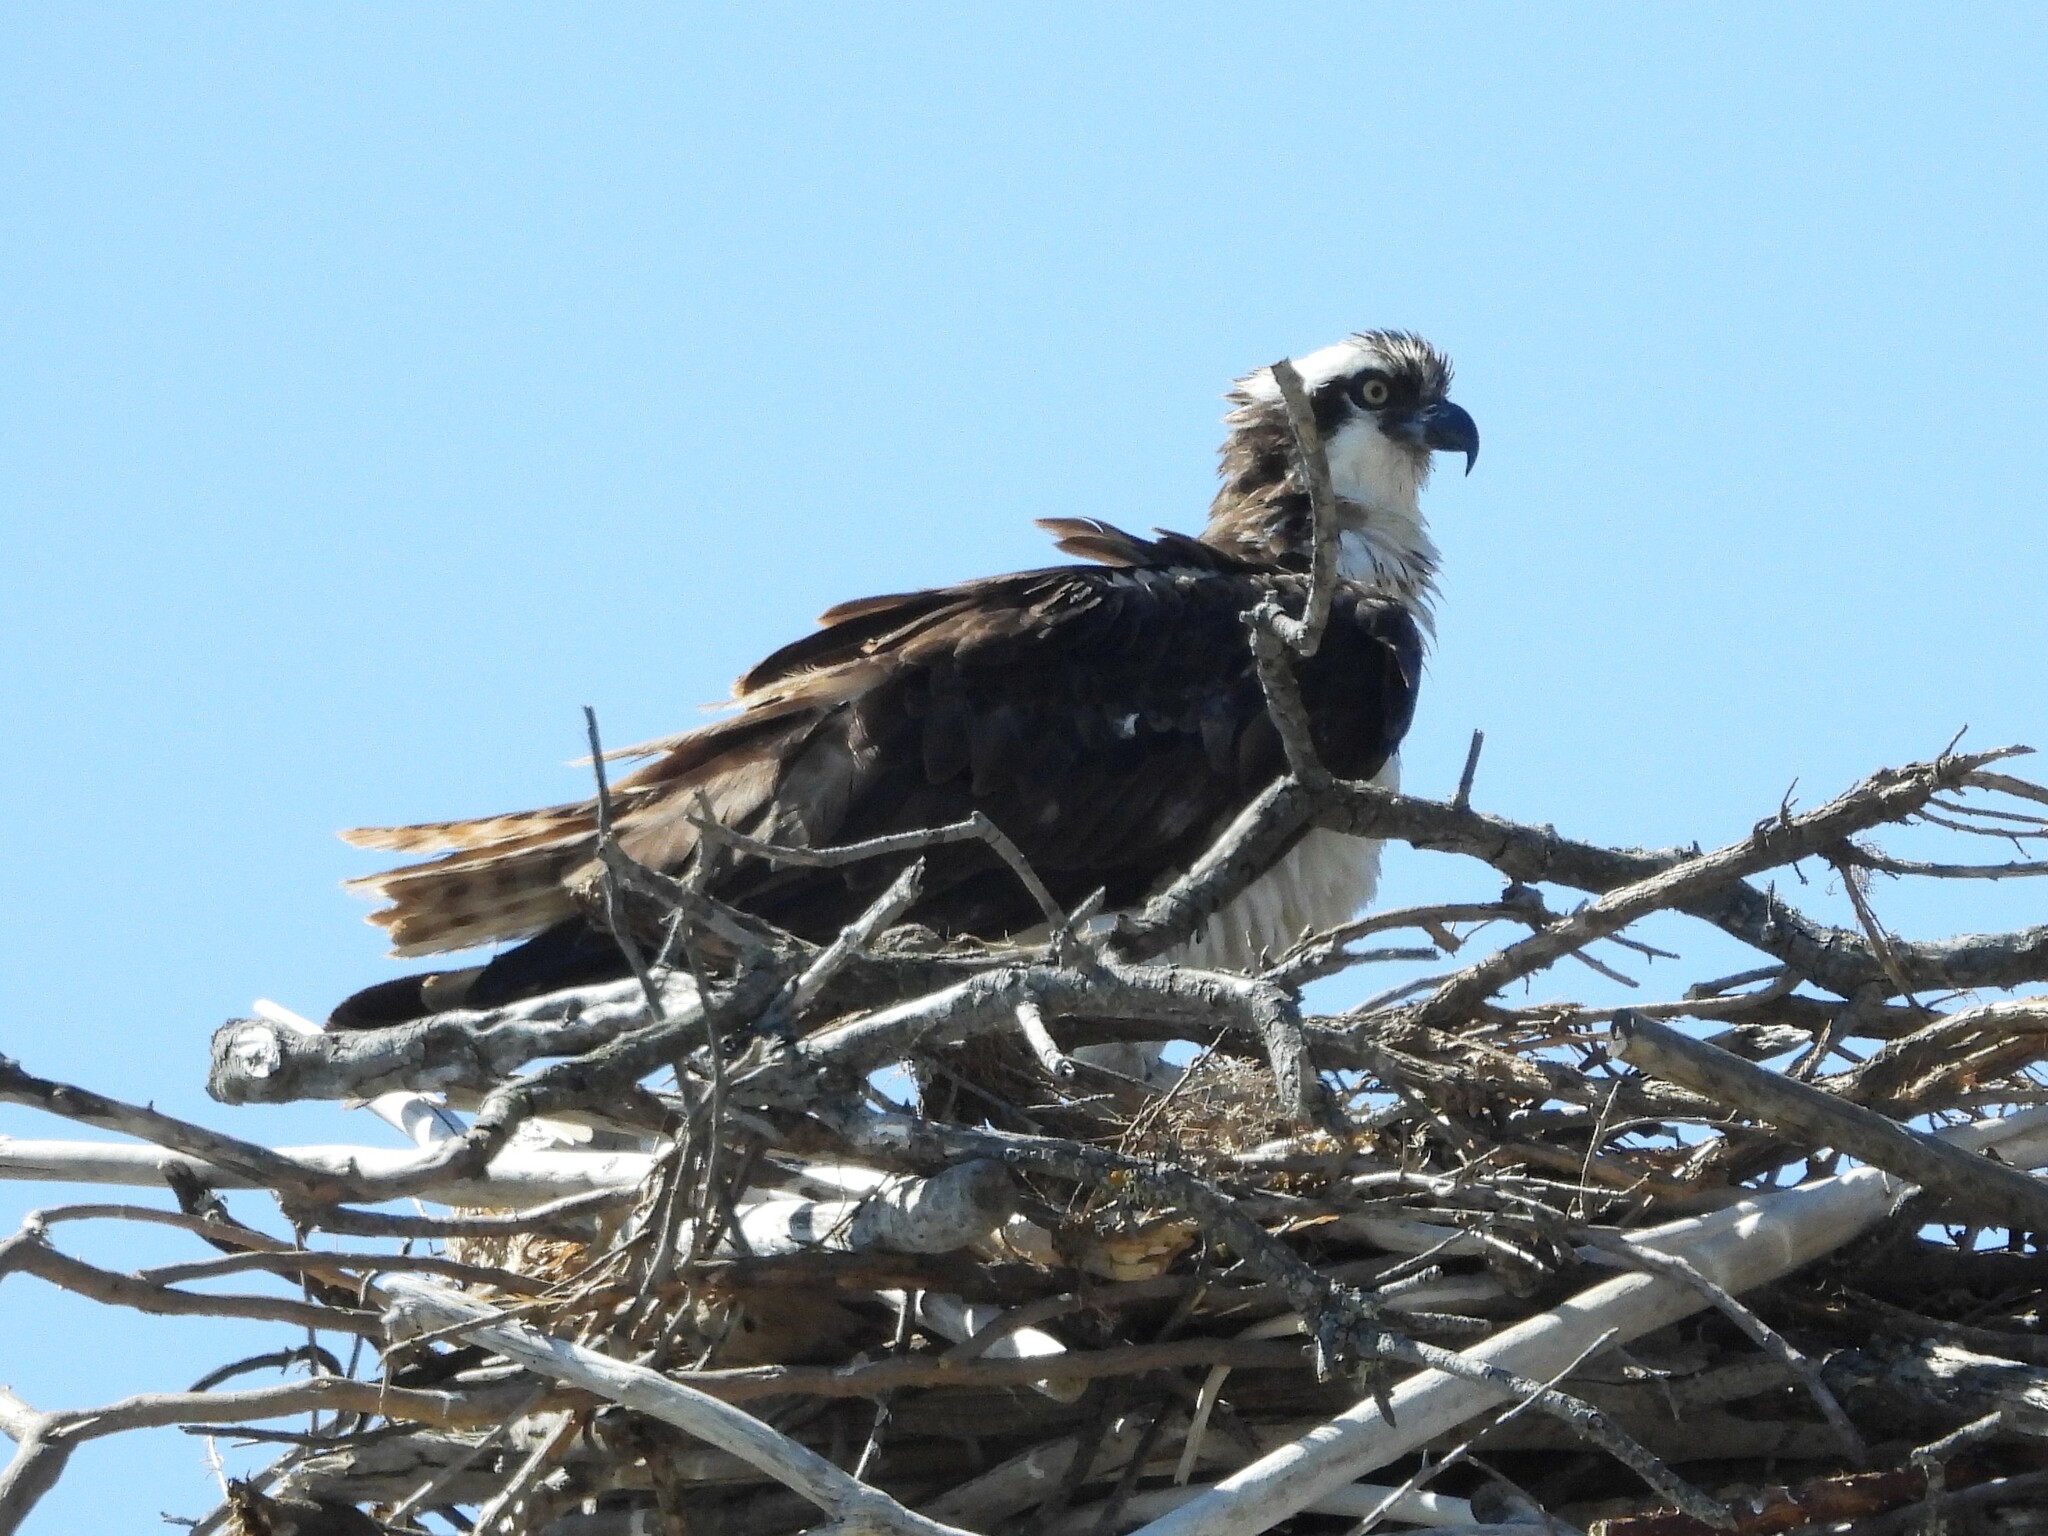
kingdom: Animalia
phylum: Chordata
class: Aves
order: Accipitriformes
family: Pandionidae
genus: Pandion
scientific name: Pandion haliaetus
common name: Osprey
